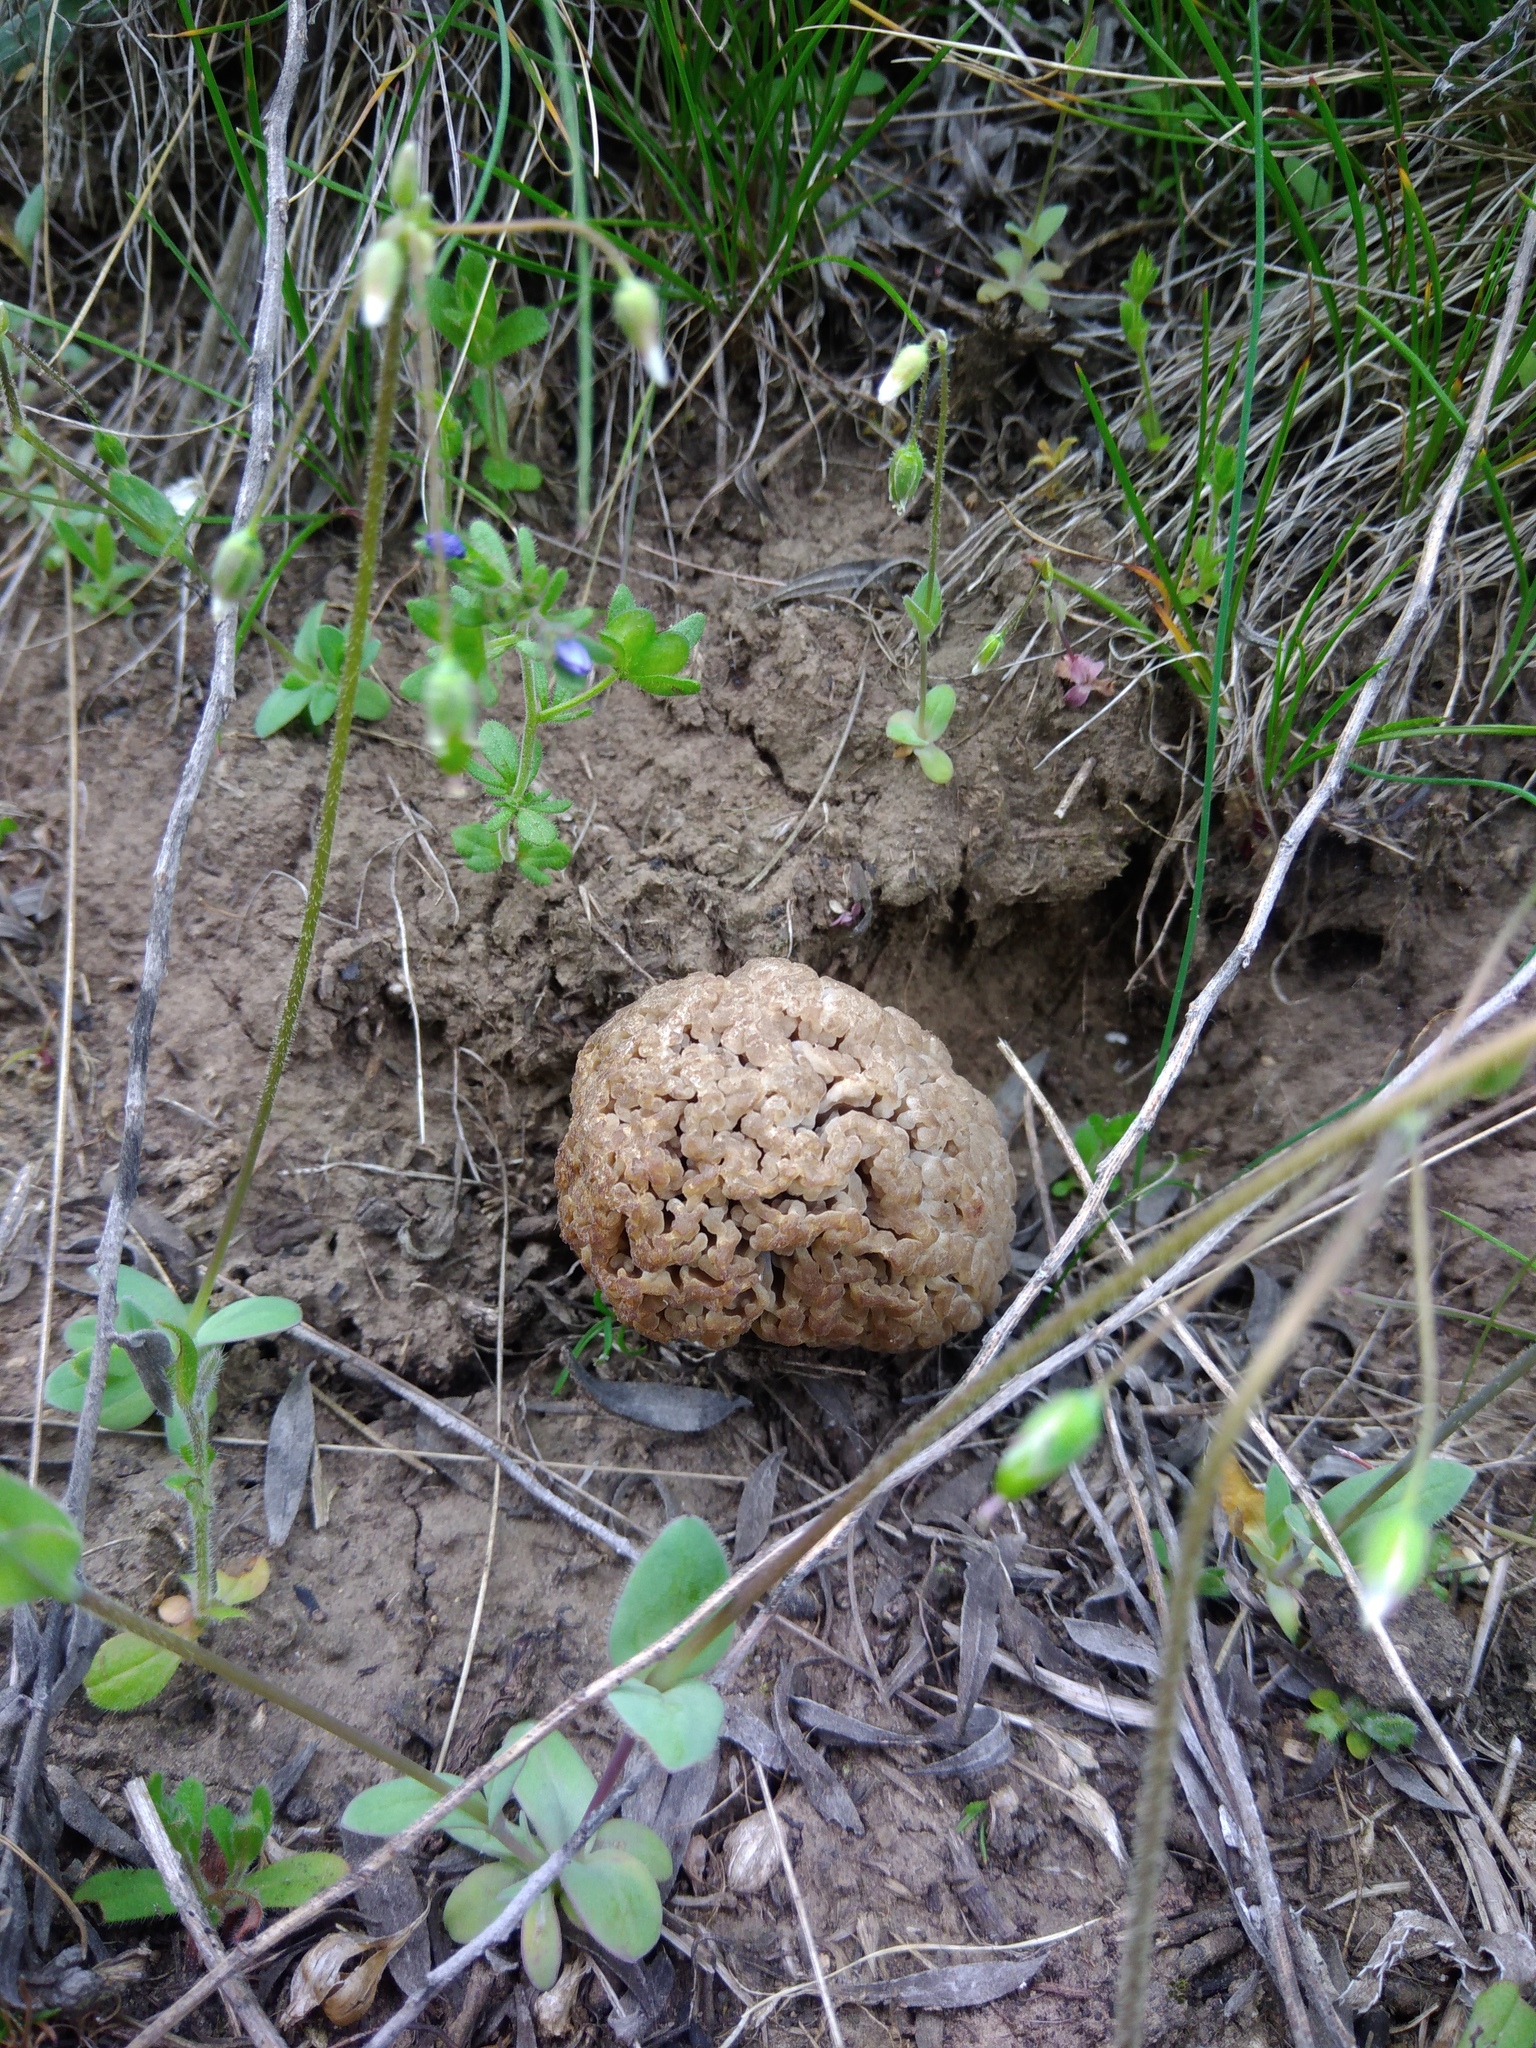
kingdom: Fungi
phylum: Ascomycota
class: Pezizomycetes
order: Pezizales
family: Morchellaceae
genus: Morchella
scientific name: Morchella steppicola
